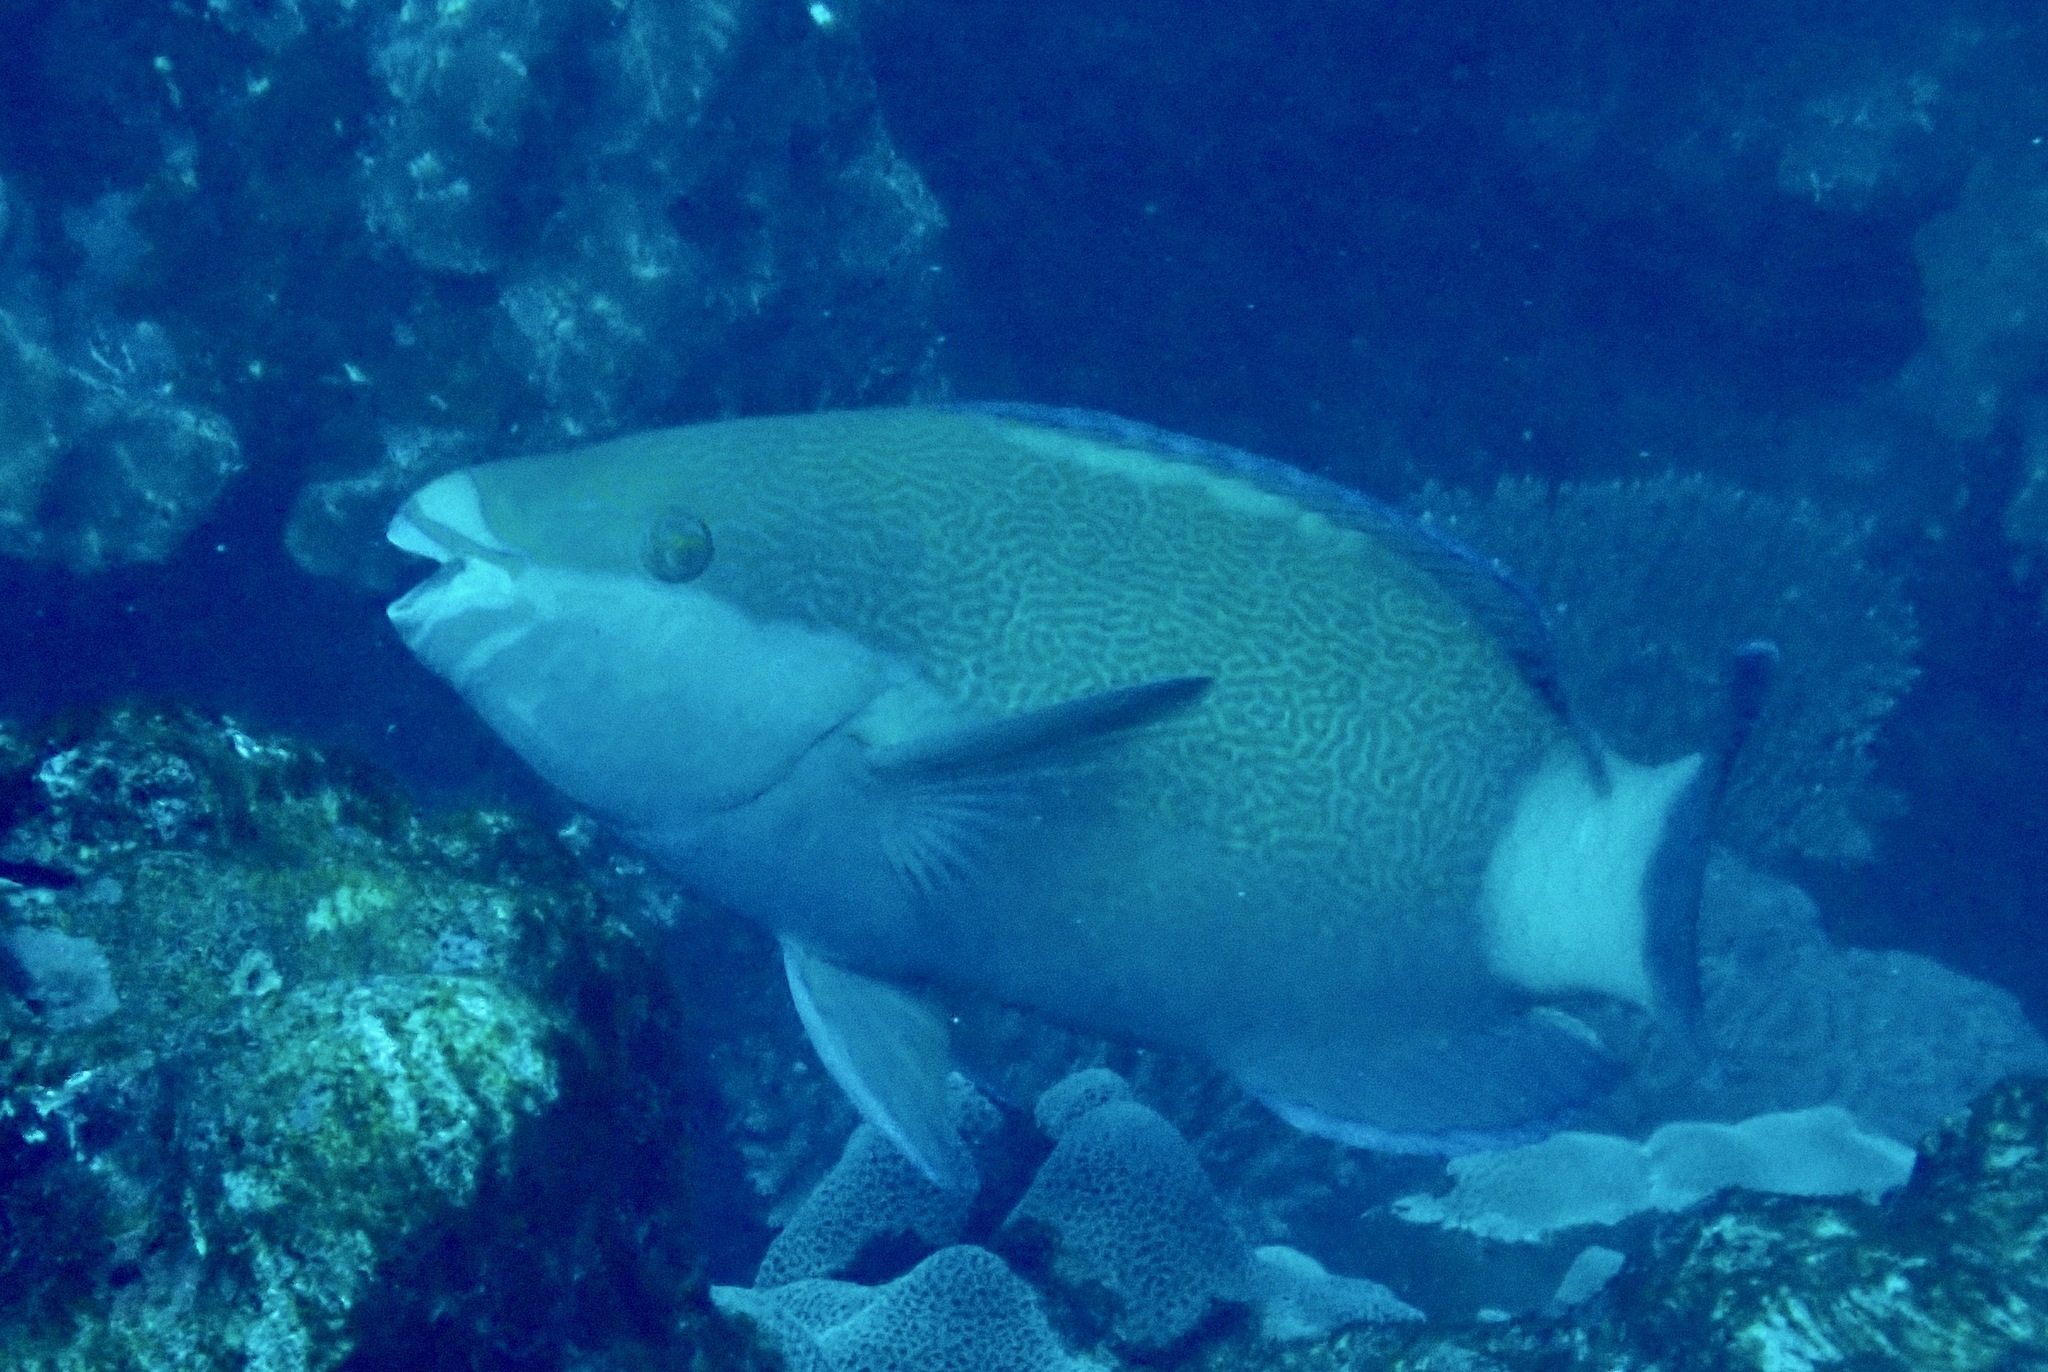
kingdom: Animalia
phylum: Chordata
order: Perciformes
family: Scaridae
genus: Scarus
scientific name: Scarus frenatus
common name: Bridled parrotfish
